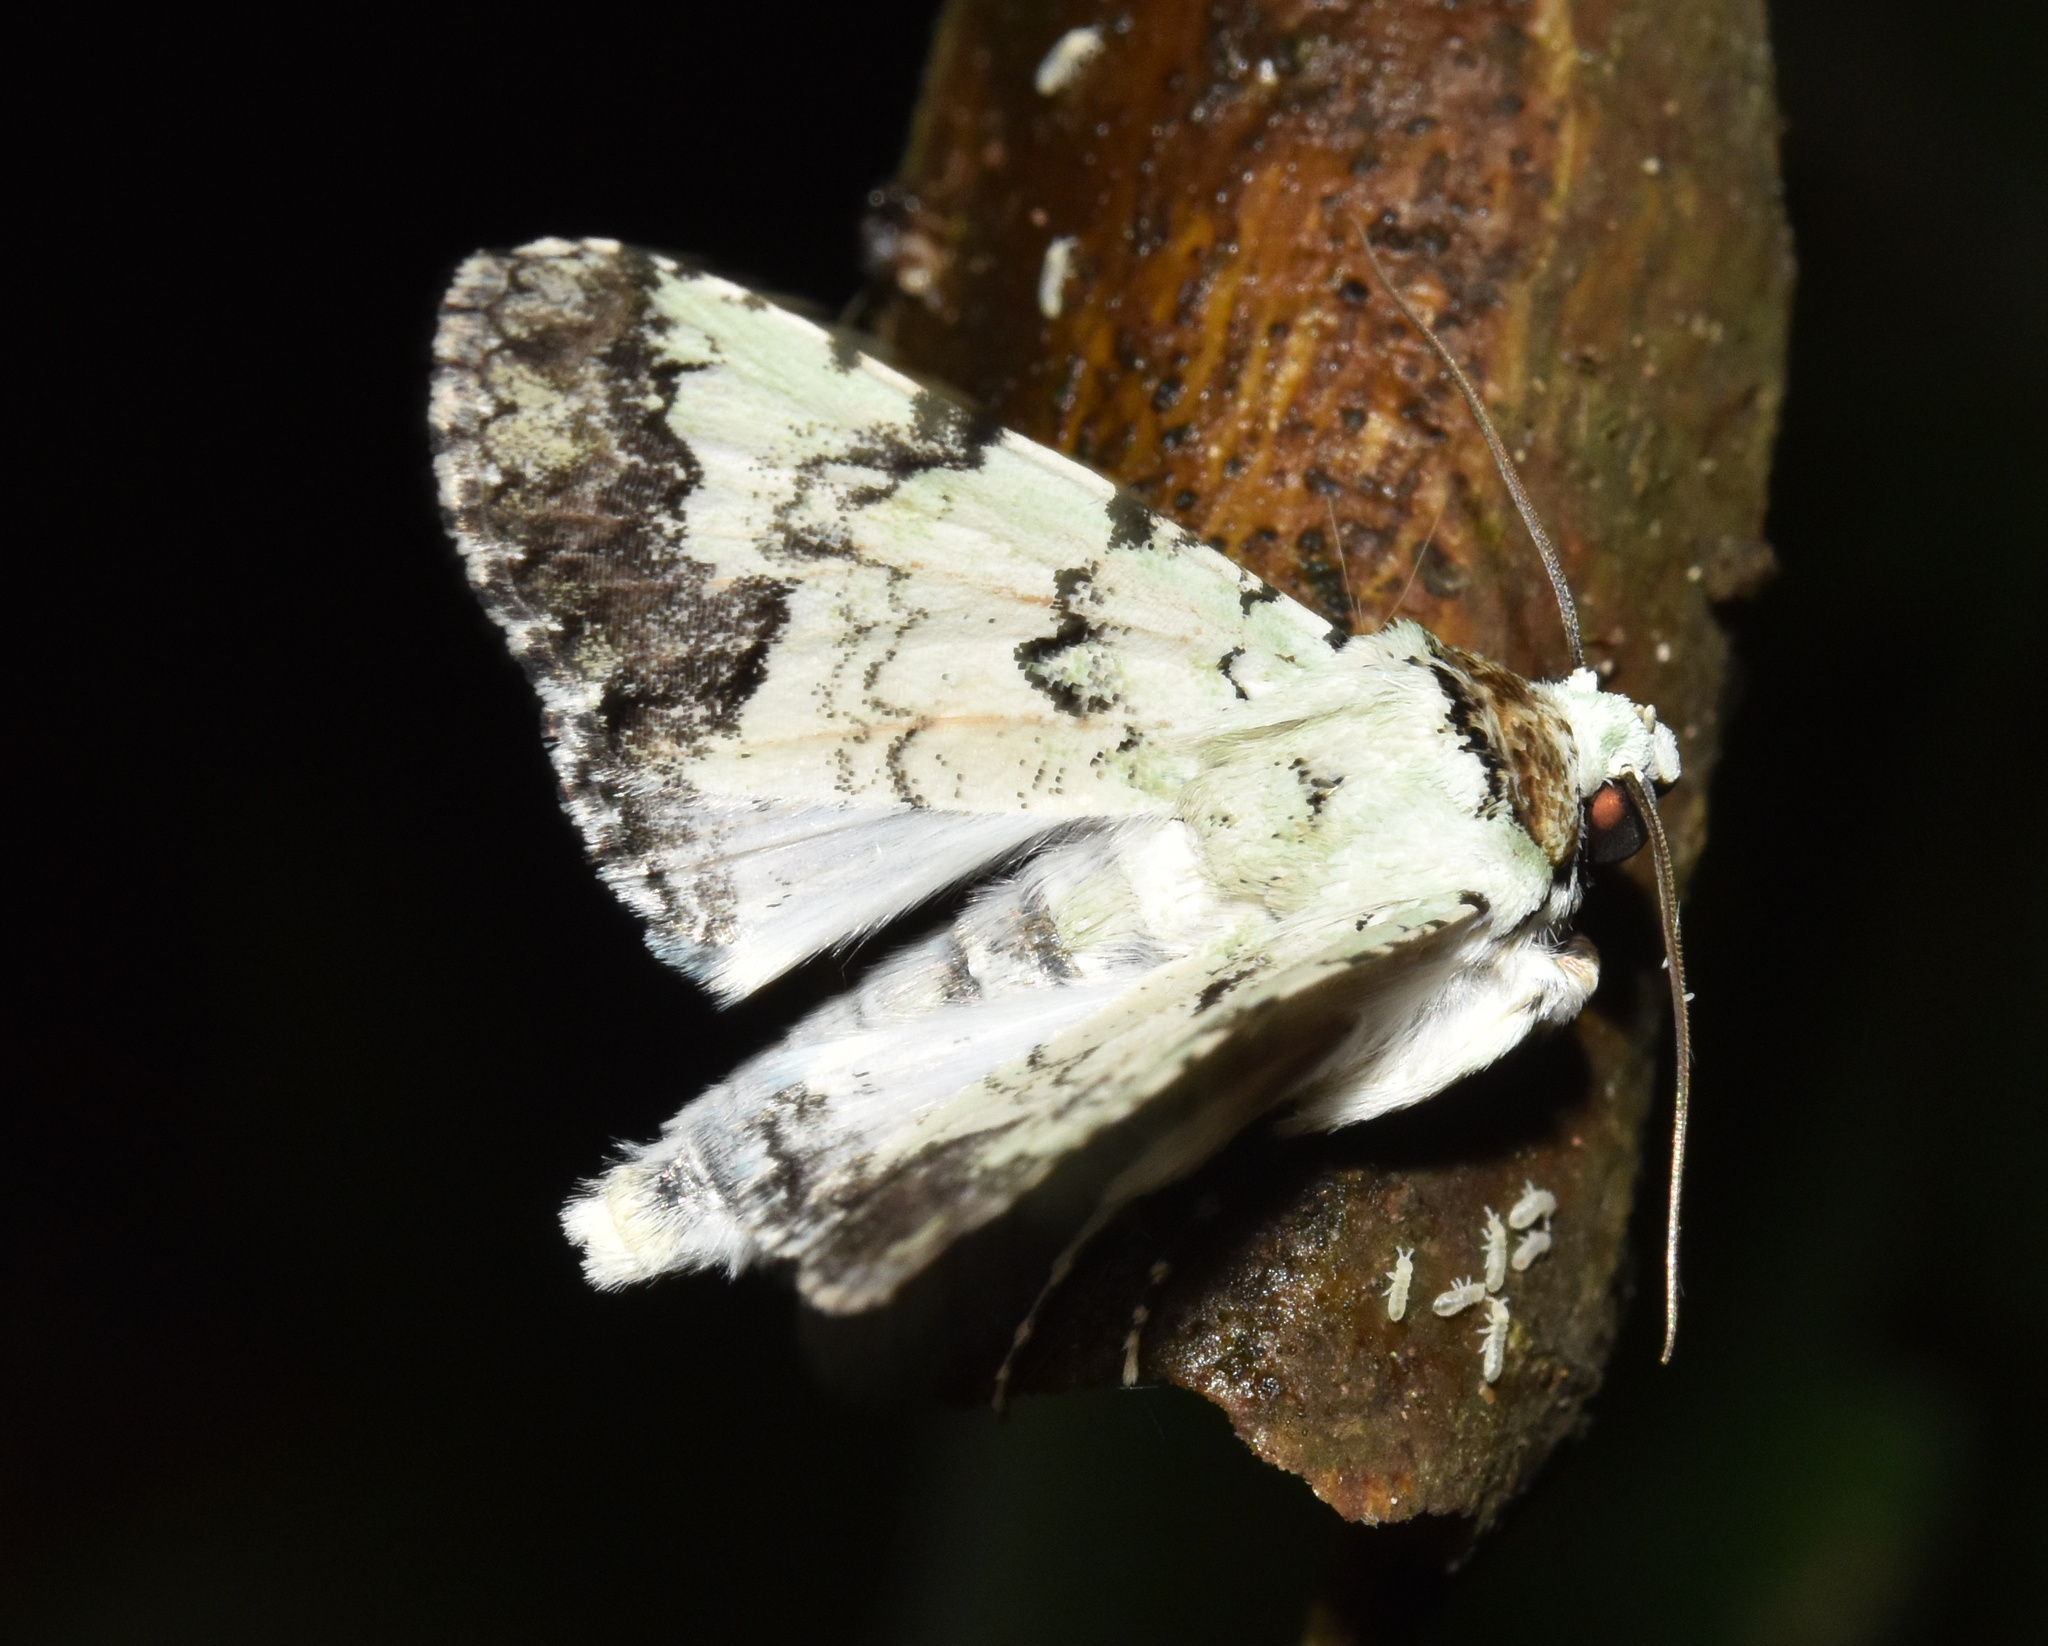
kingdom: Animalia
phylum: Arthropoda
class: Insecta
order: Lepidoptera
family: Erebidae
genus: Bamra
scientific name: Bamra marmorifera
